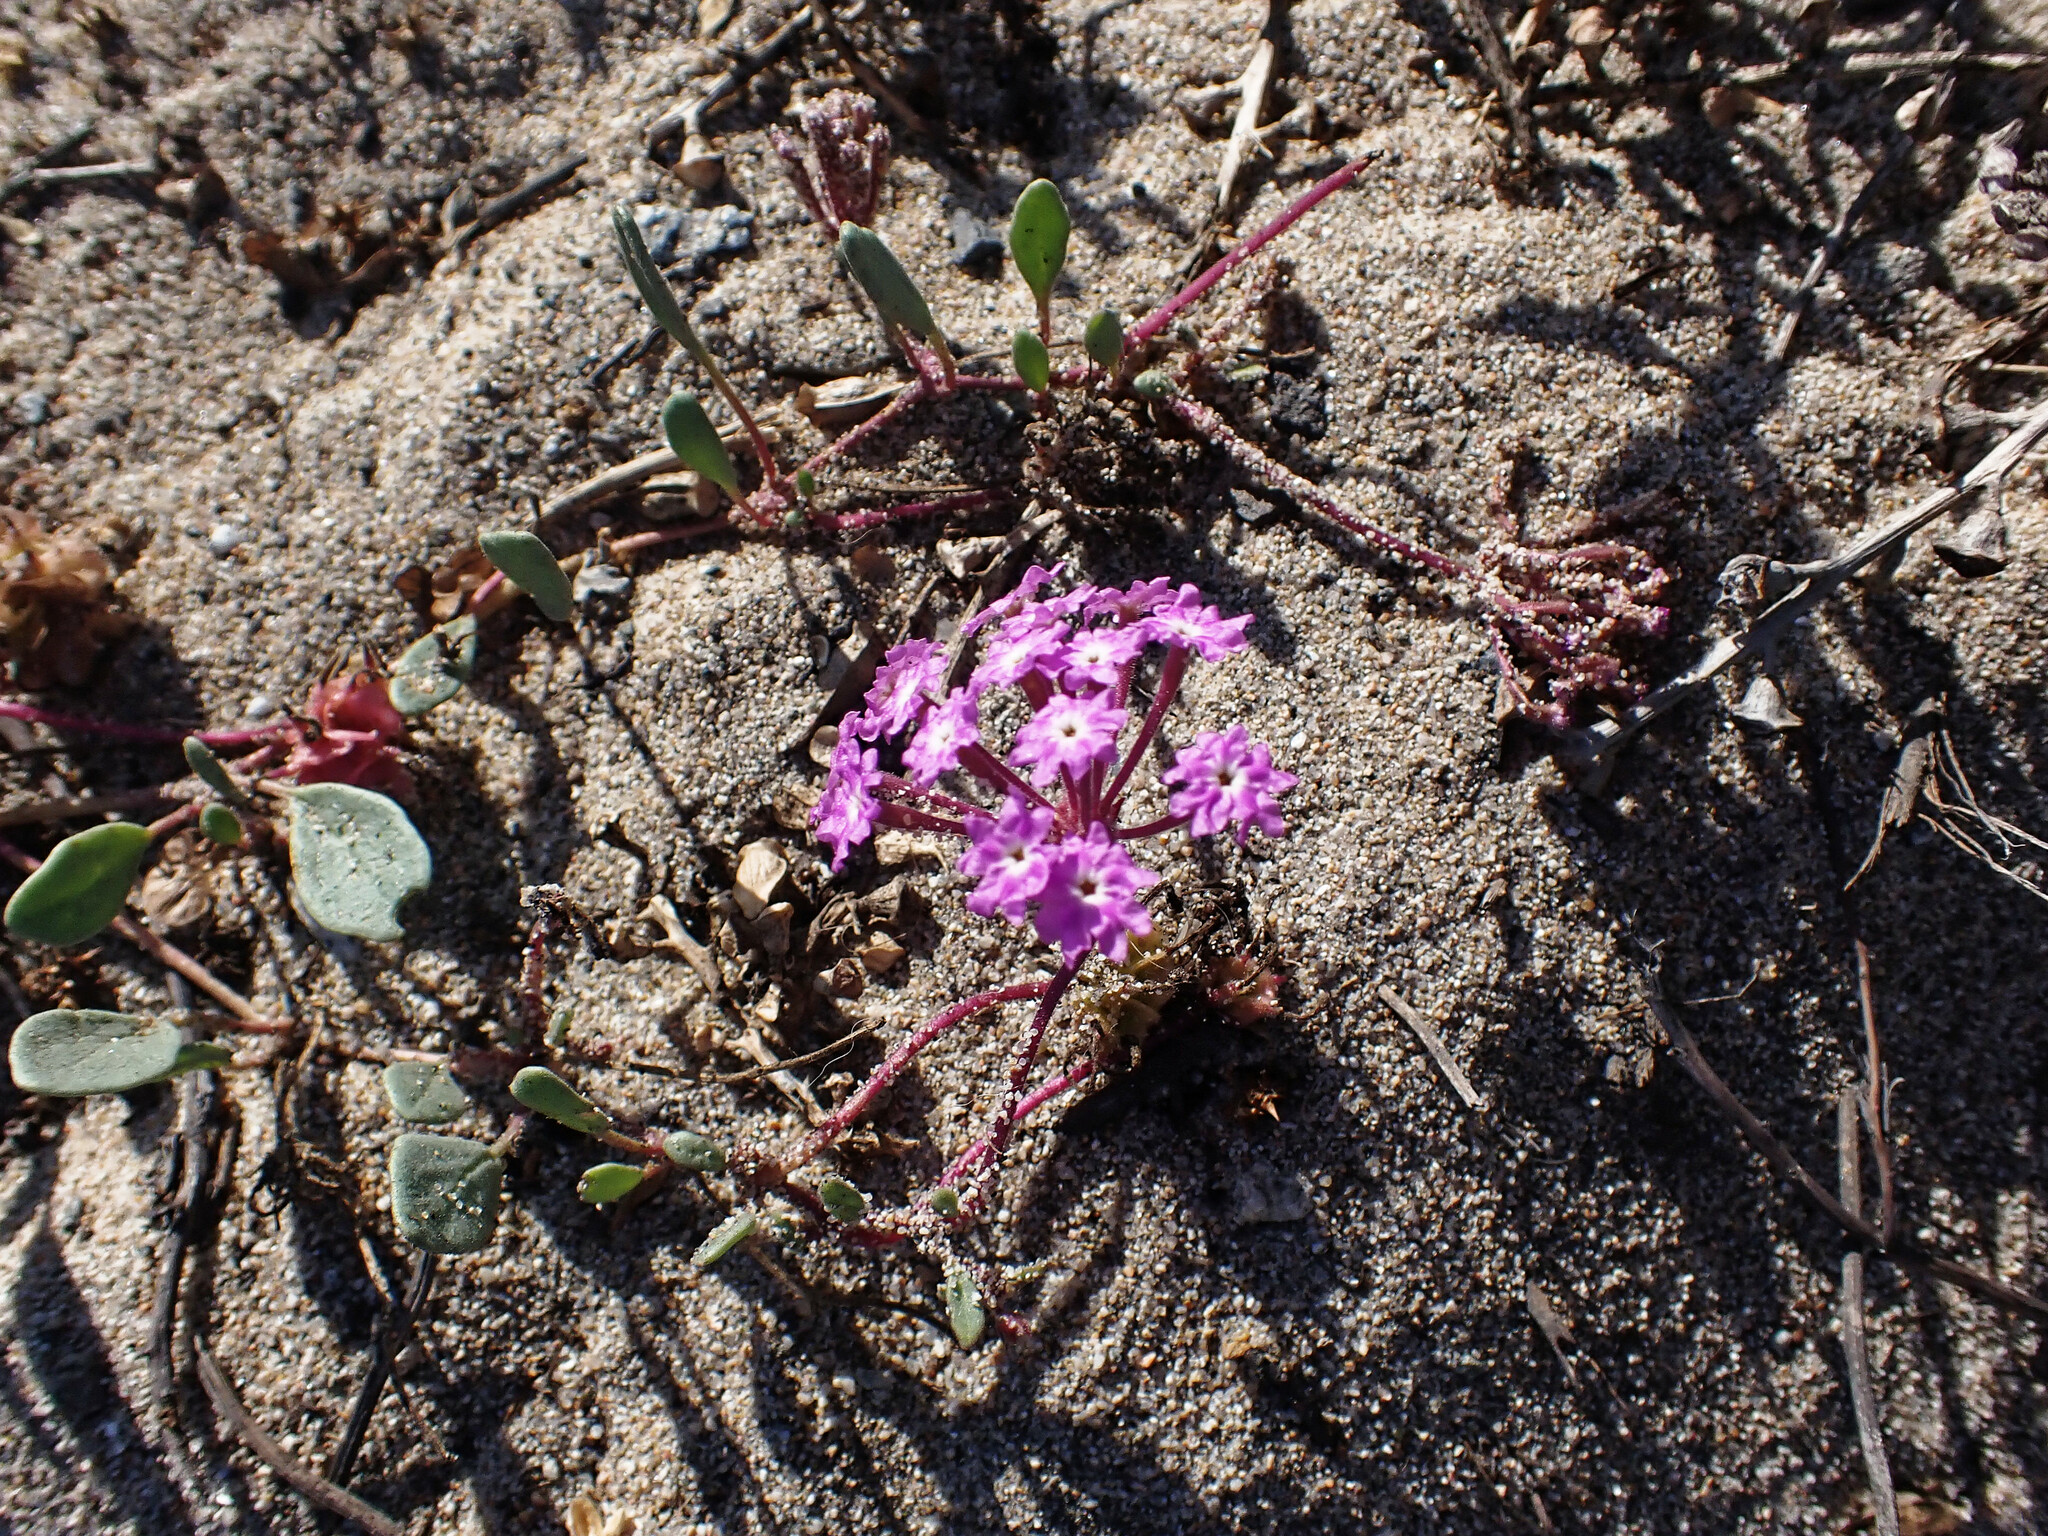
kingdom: Plantae
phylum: Tracheophyta
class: Magnoliopsida
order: Caryophyllales
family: Nyctaginaceae
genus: Abronia
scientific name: Abronia umbellata
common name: Sand-verbena
